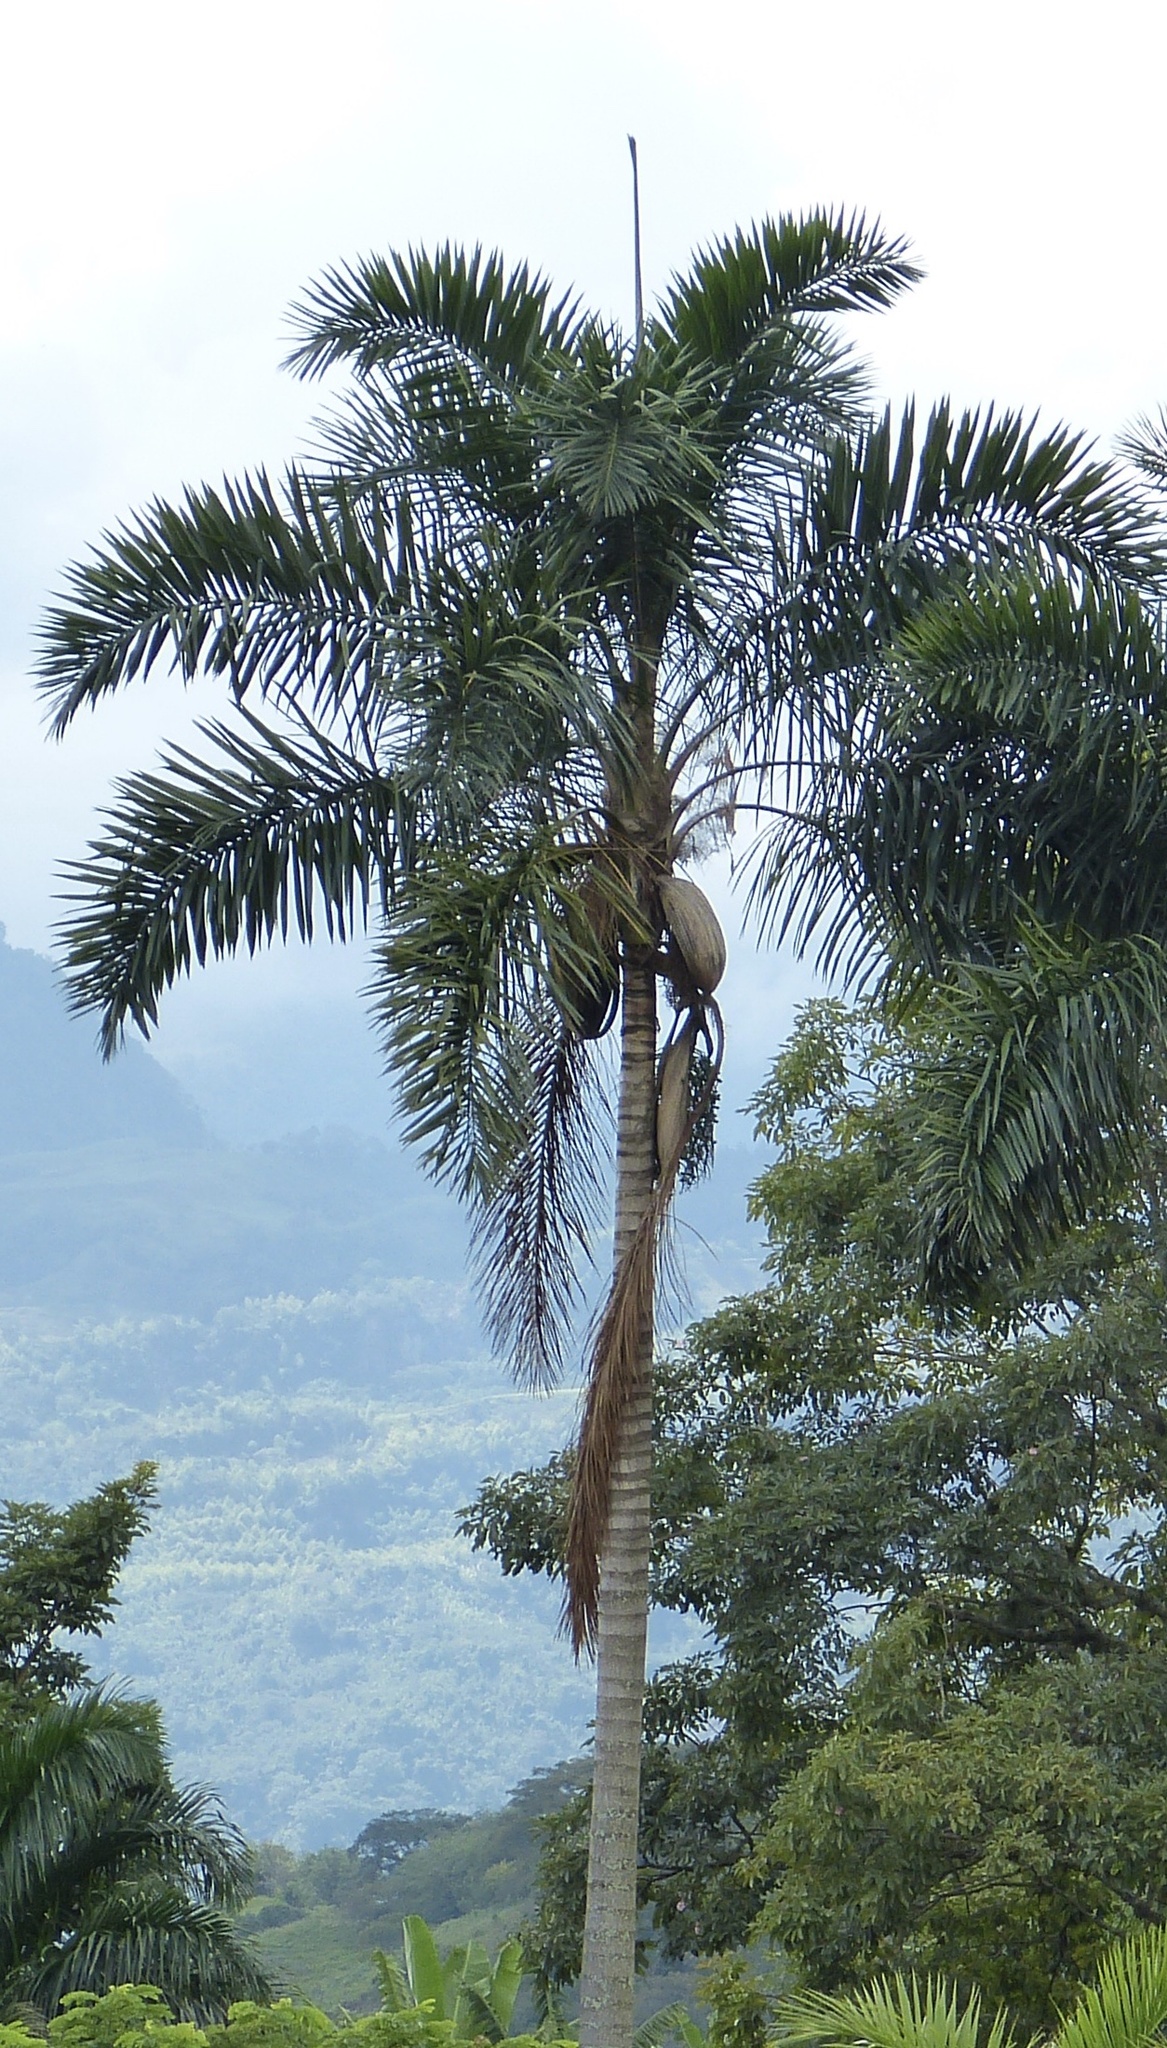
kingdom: Plantae
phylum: Tracheophyta
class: Liliopsida
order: Arecales
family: Arecaceae
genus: Roystonea
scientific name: Roystonea regia
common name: Florida royal palm
